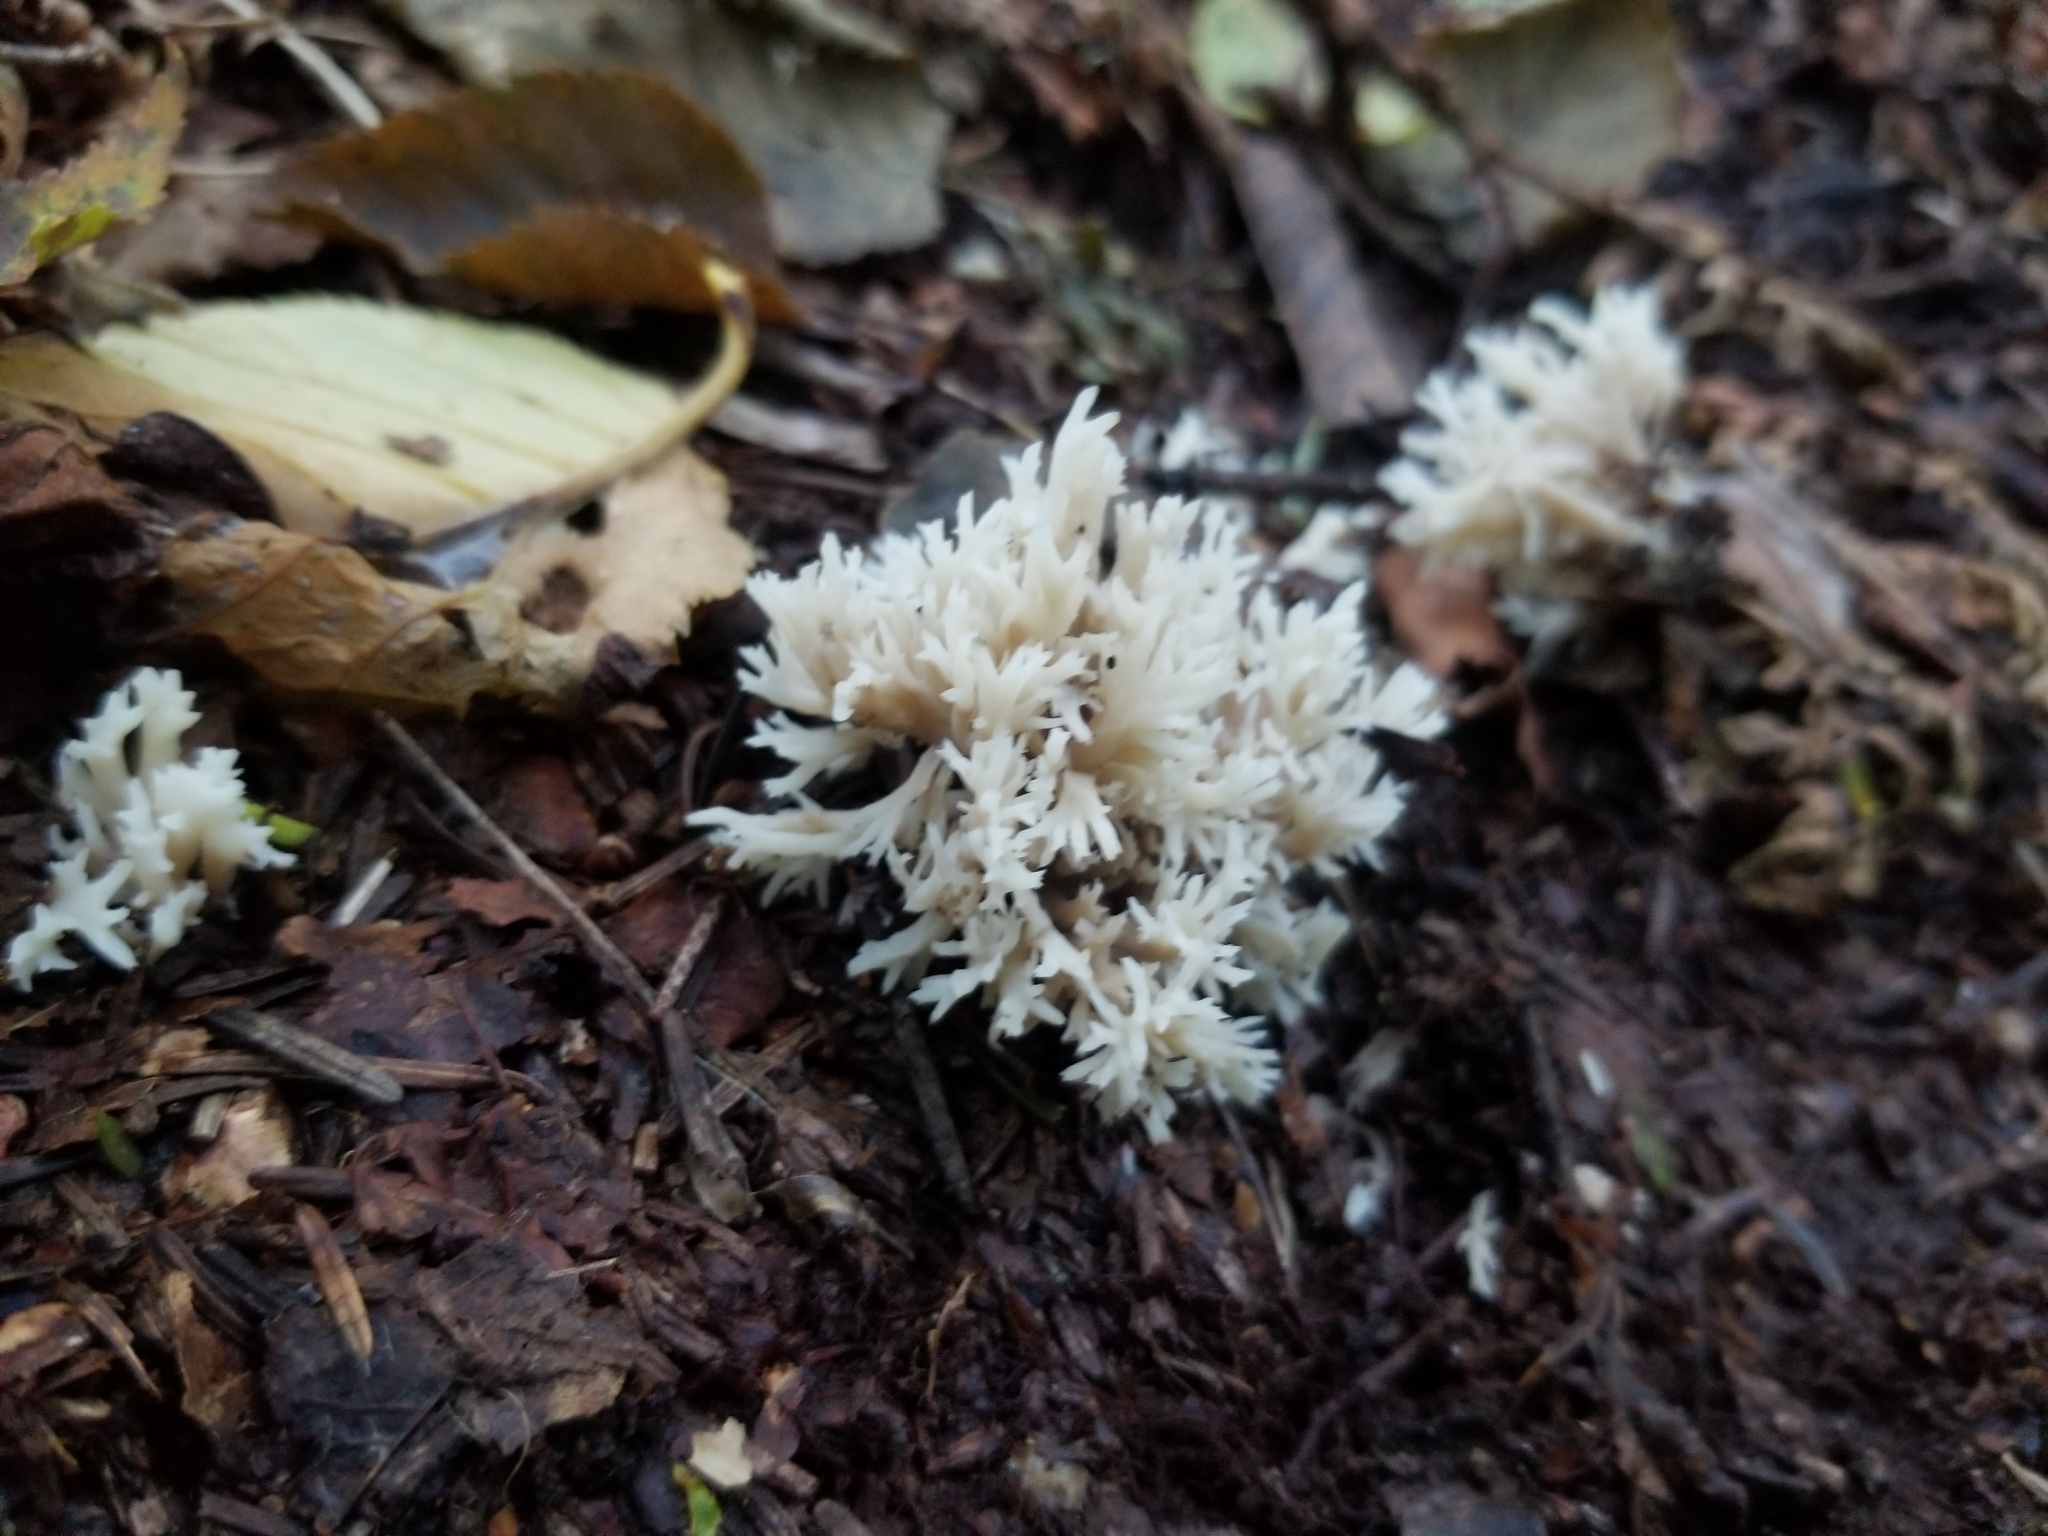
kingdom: Fungi
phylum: Basidiomycota
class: Agaricomycetes
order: Cantharellales
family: Hydnaceae
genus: Clavulina
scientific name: Clavulina coralloides
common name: Crested coral
